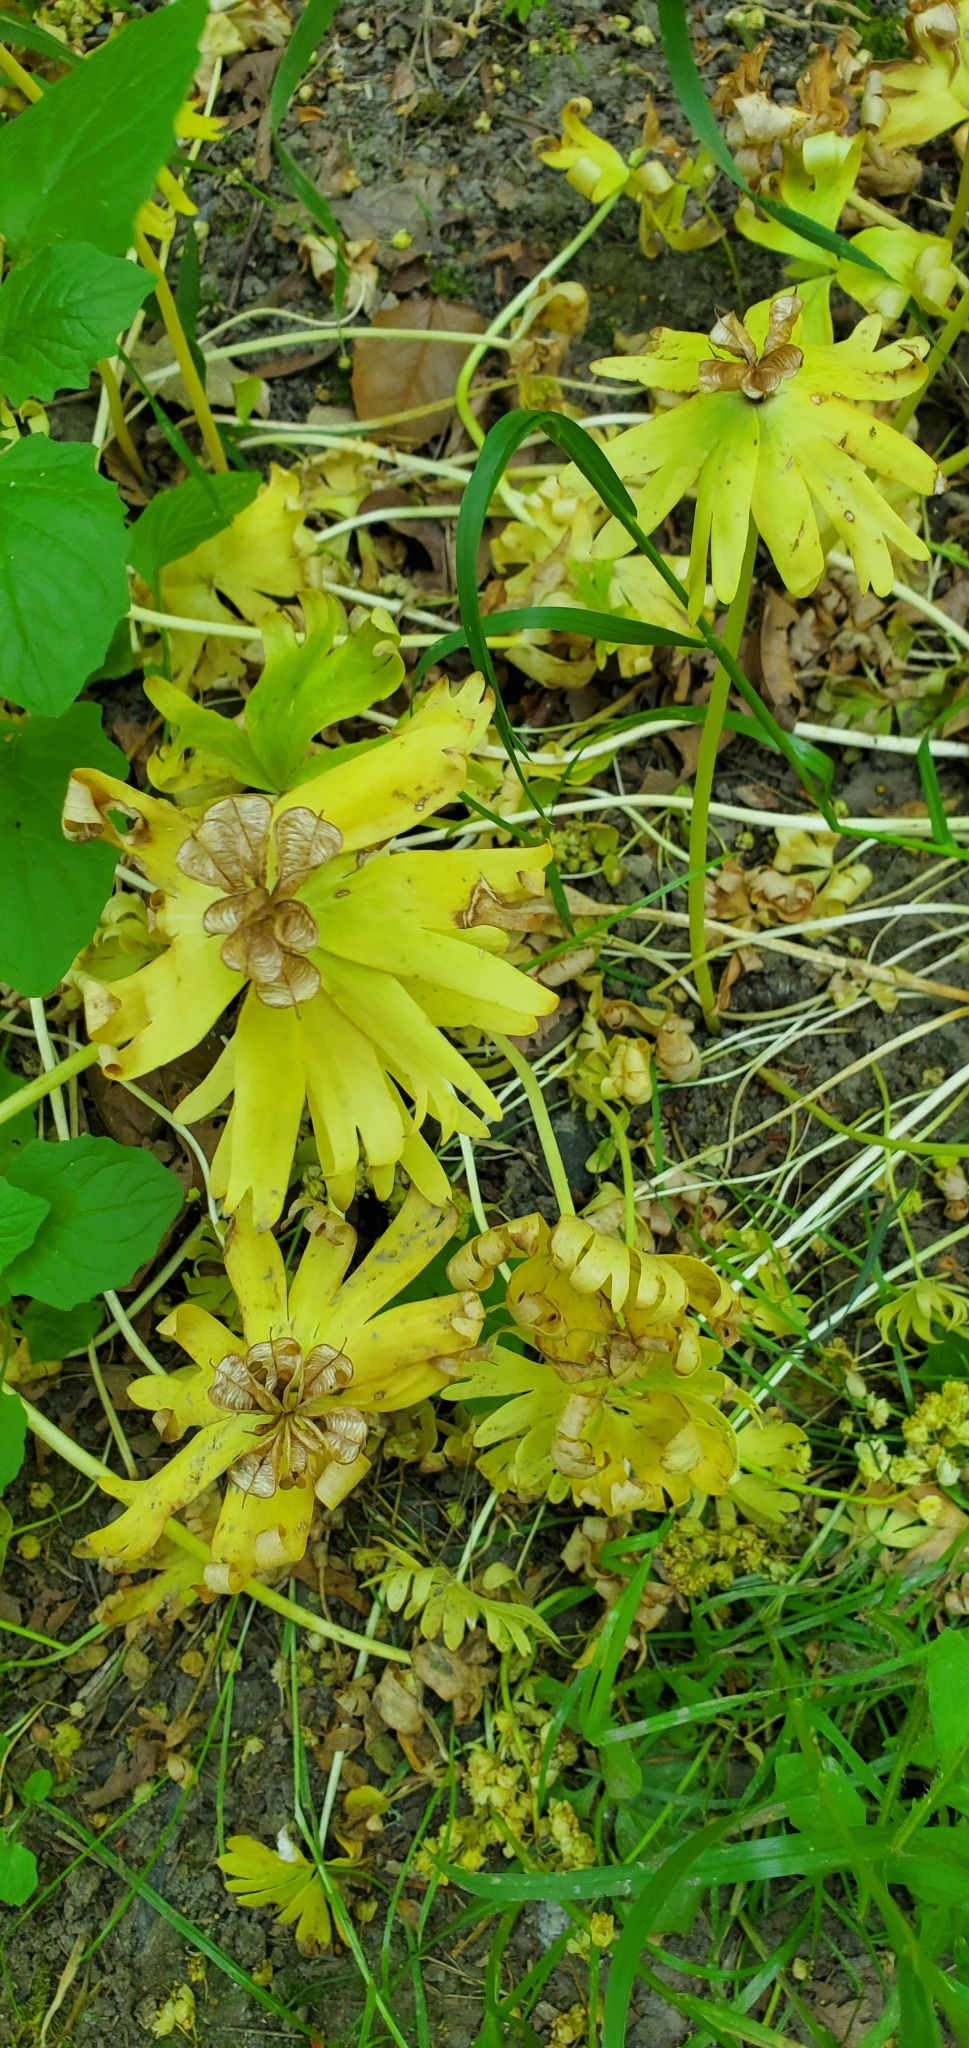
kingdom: Plantae
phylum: Tracheophyta
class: Magnoliopsida
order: Ranunculales
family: Ranunculaceae
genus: Eranthis
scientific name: Eranthis hyemalis
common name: Winter aconite
